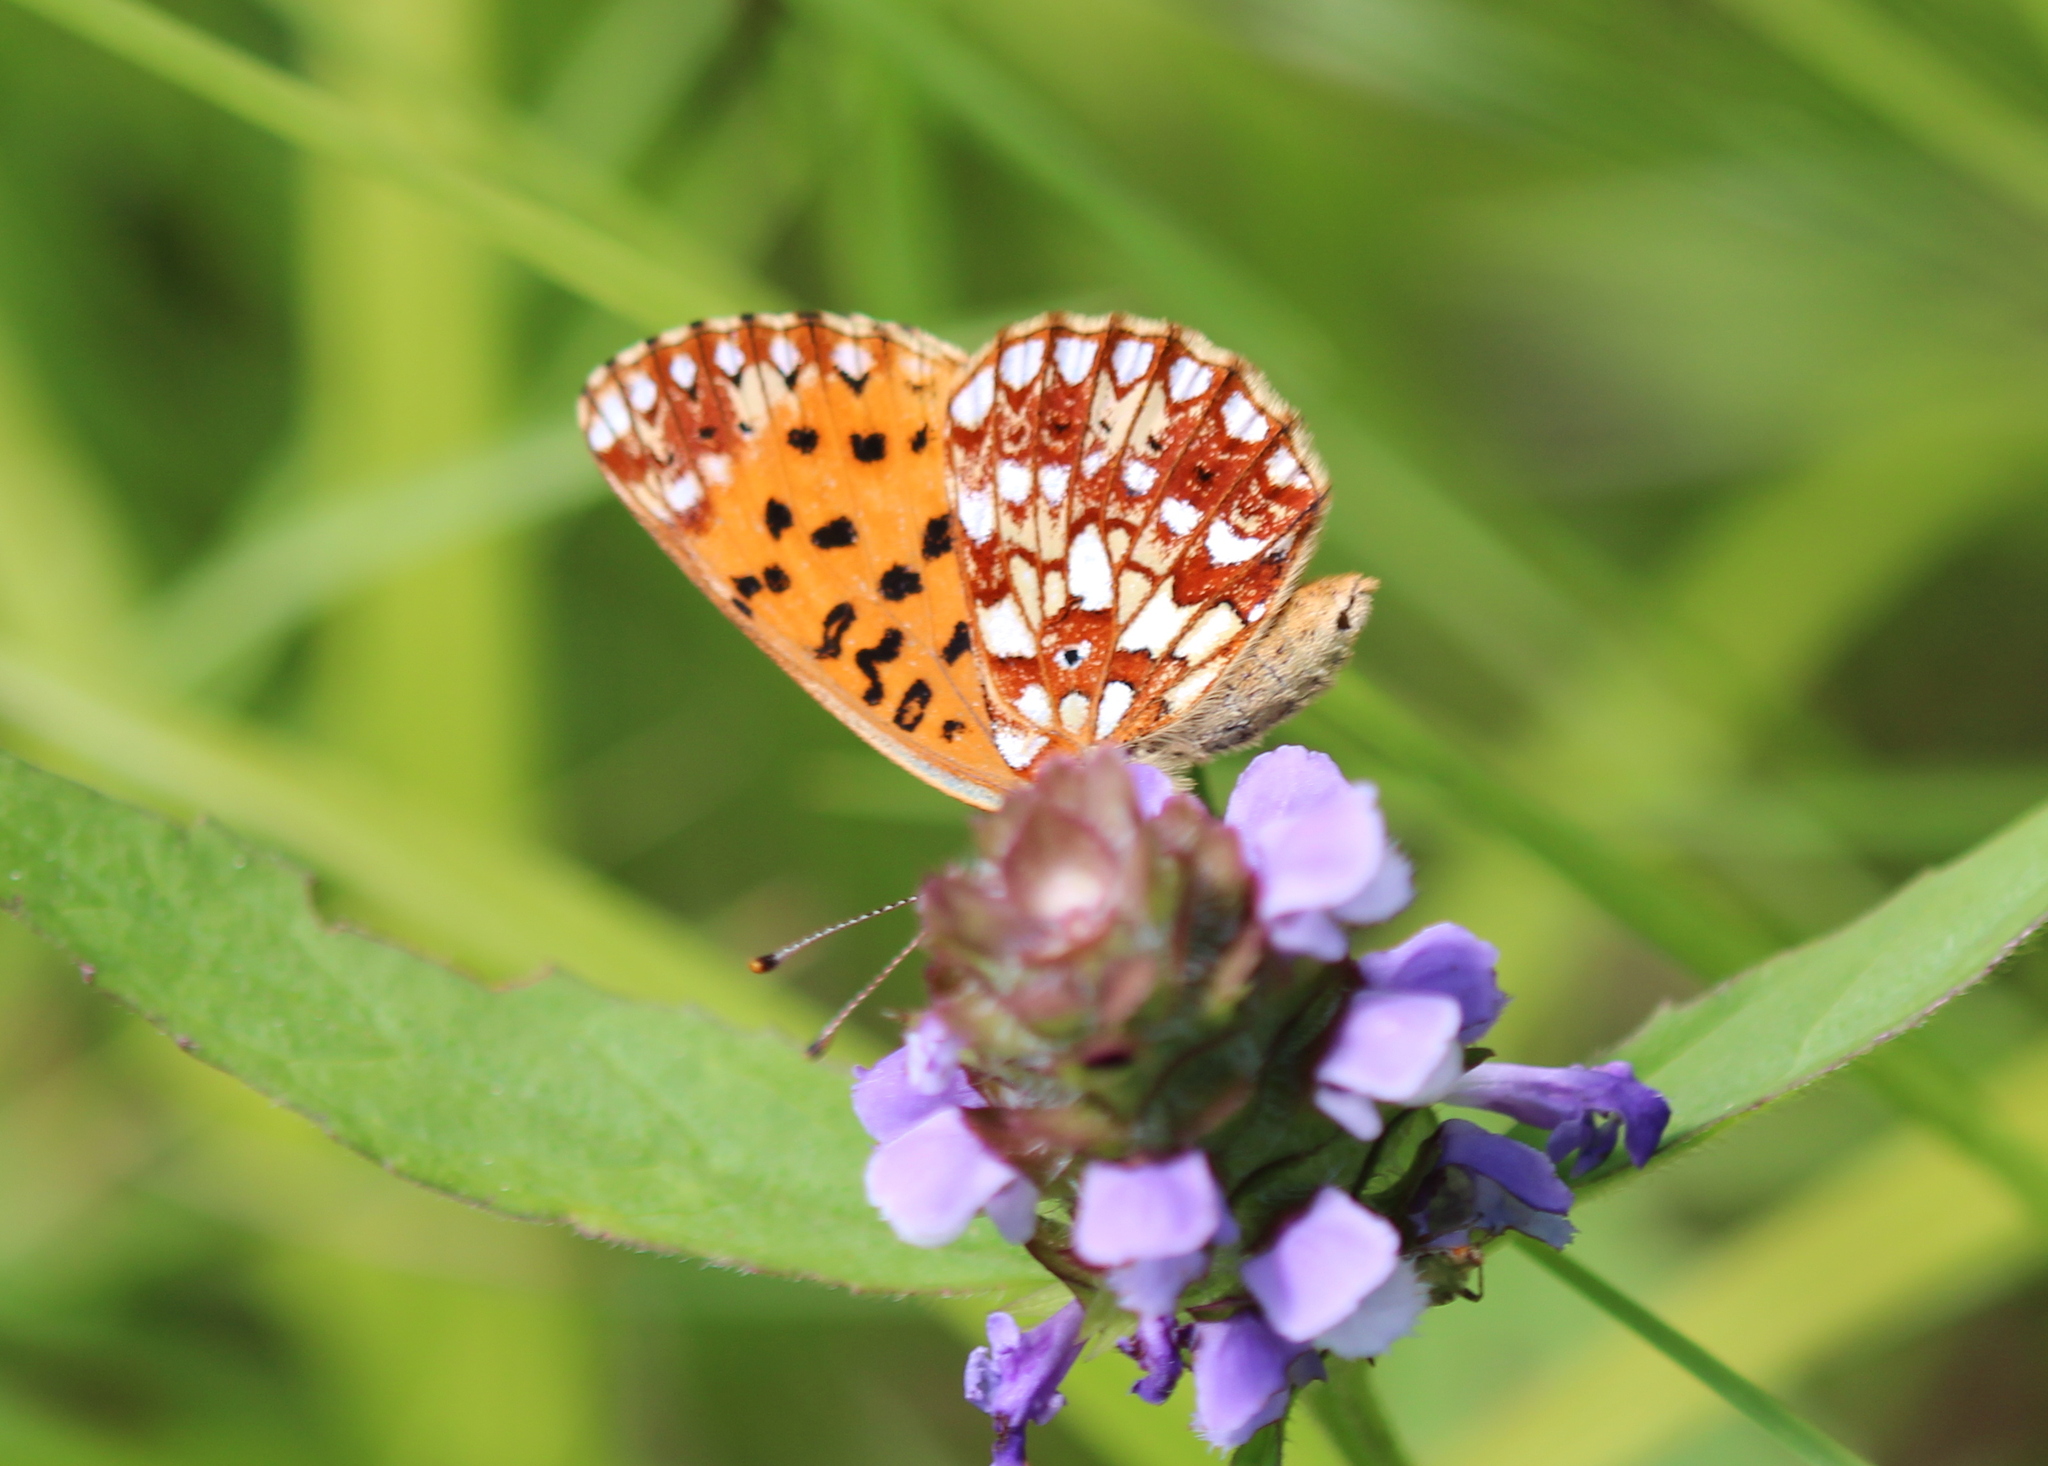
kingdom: Animalia
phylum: Arthropoda
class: Insecta
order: Lepidoptera
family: Nymphalidae
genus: Boloria
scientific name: Boloria
